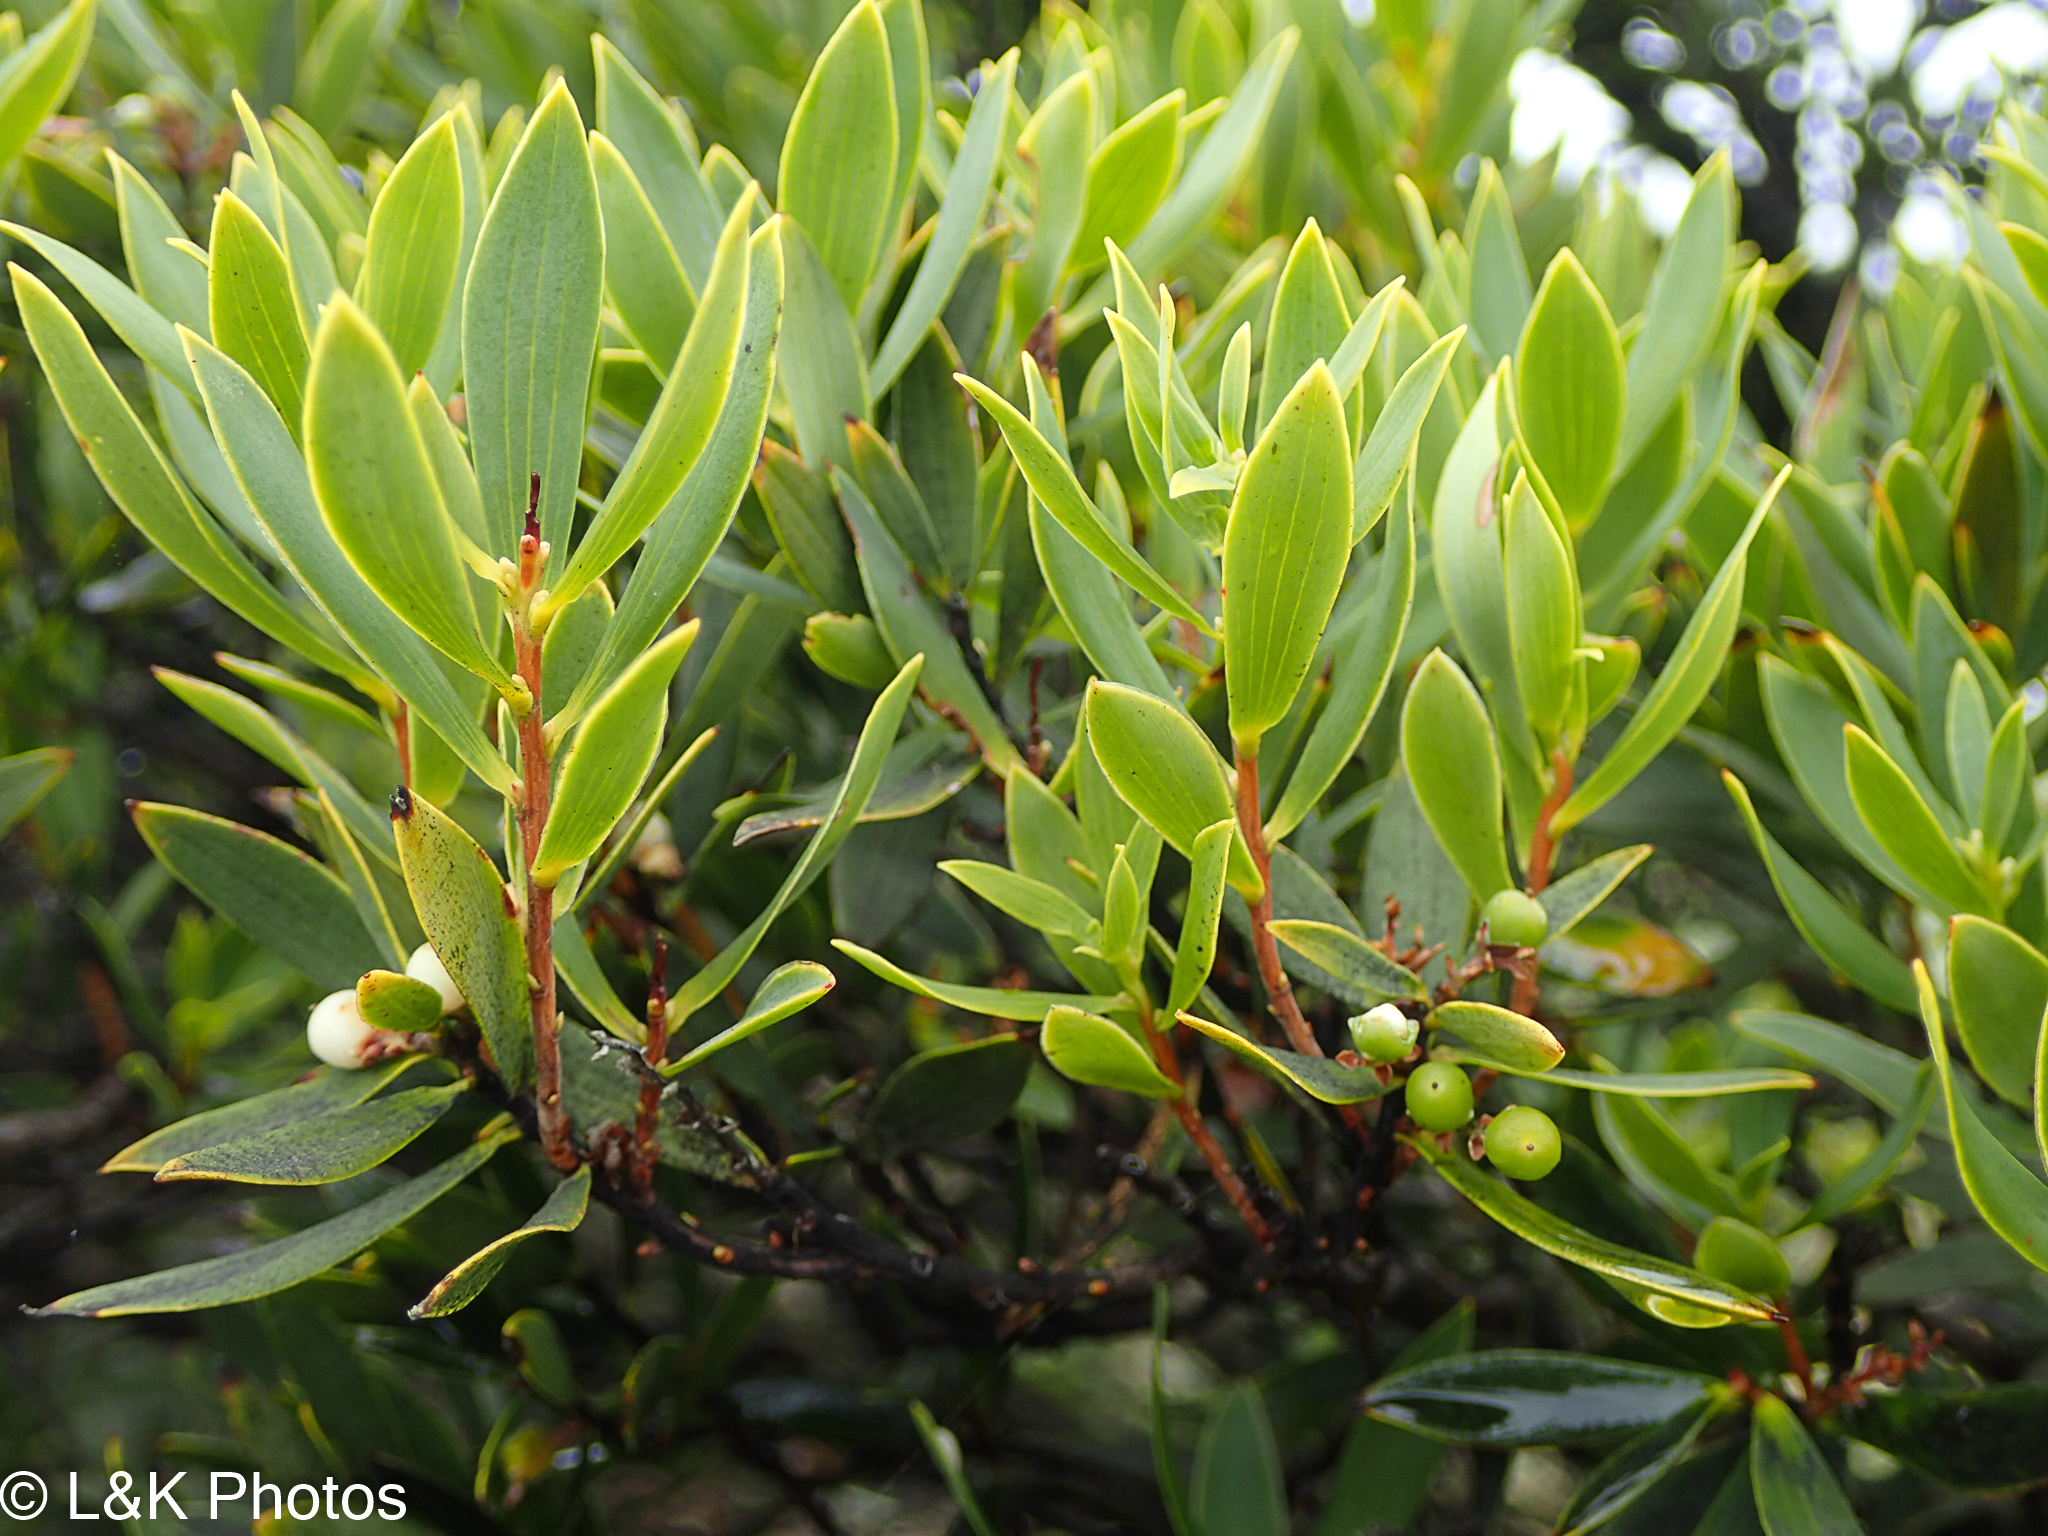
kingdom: Plantae
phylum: Tracheophyta
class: Magnoliopsida
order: Ericales
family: Ericaceae
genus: Leptecophylla
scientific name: Leptecophylla parvifolia
